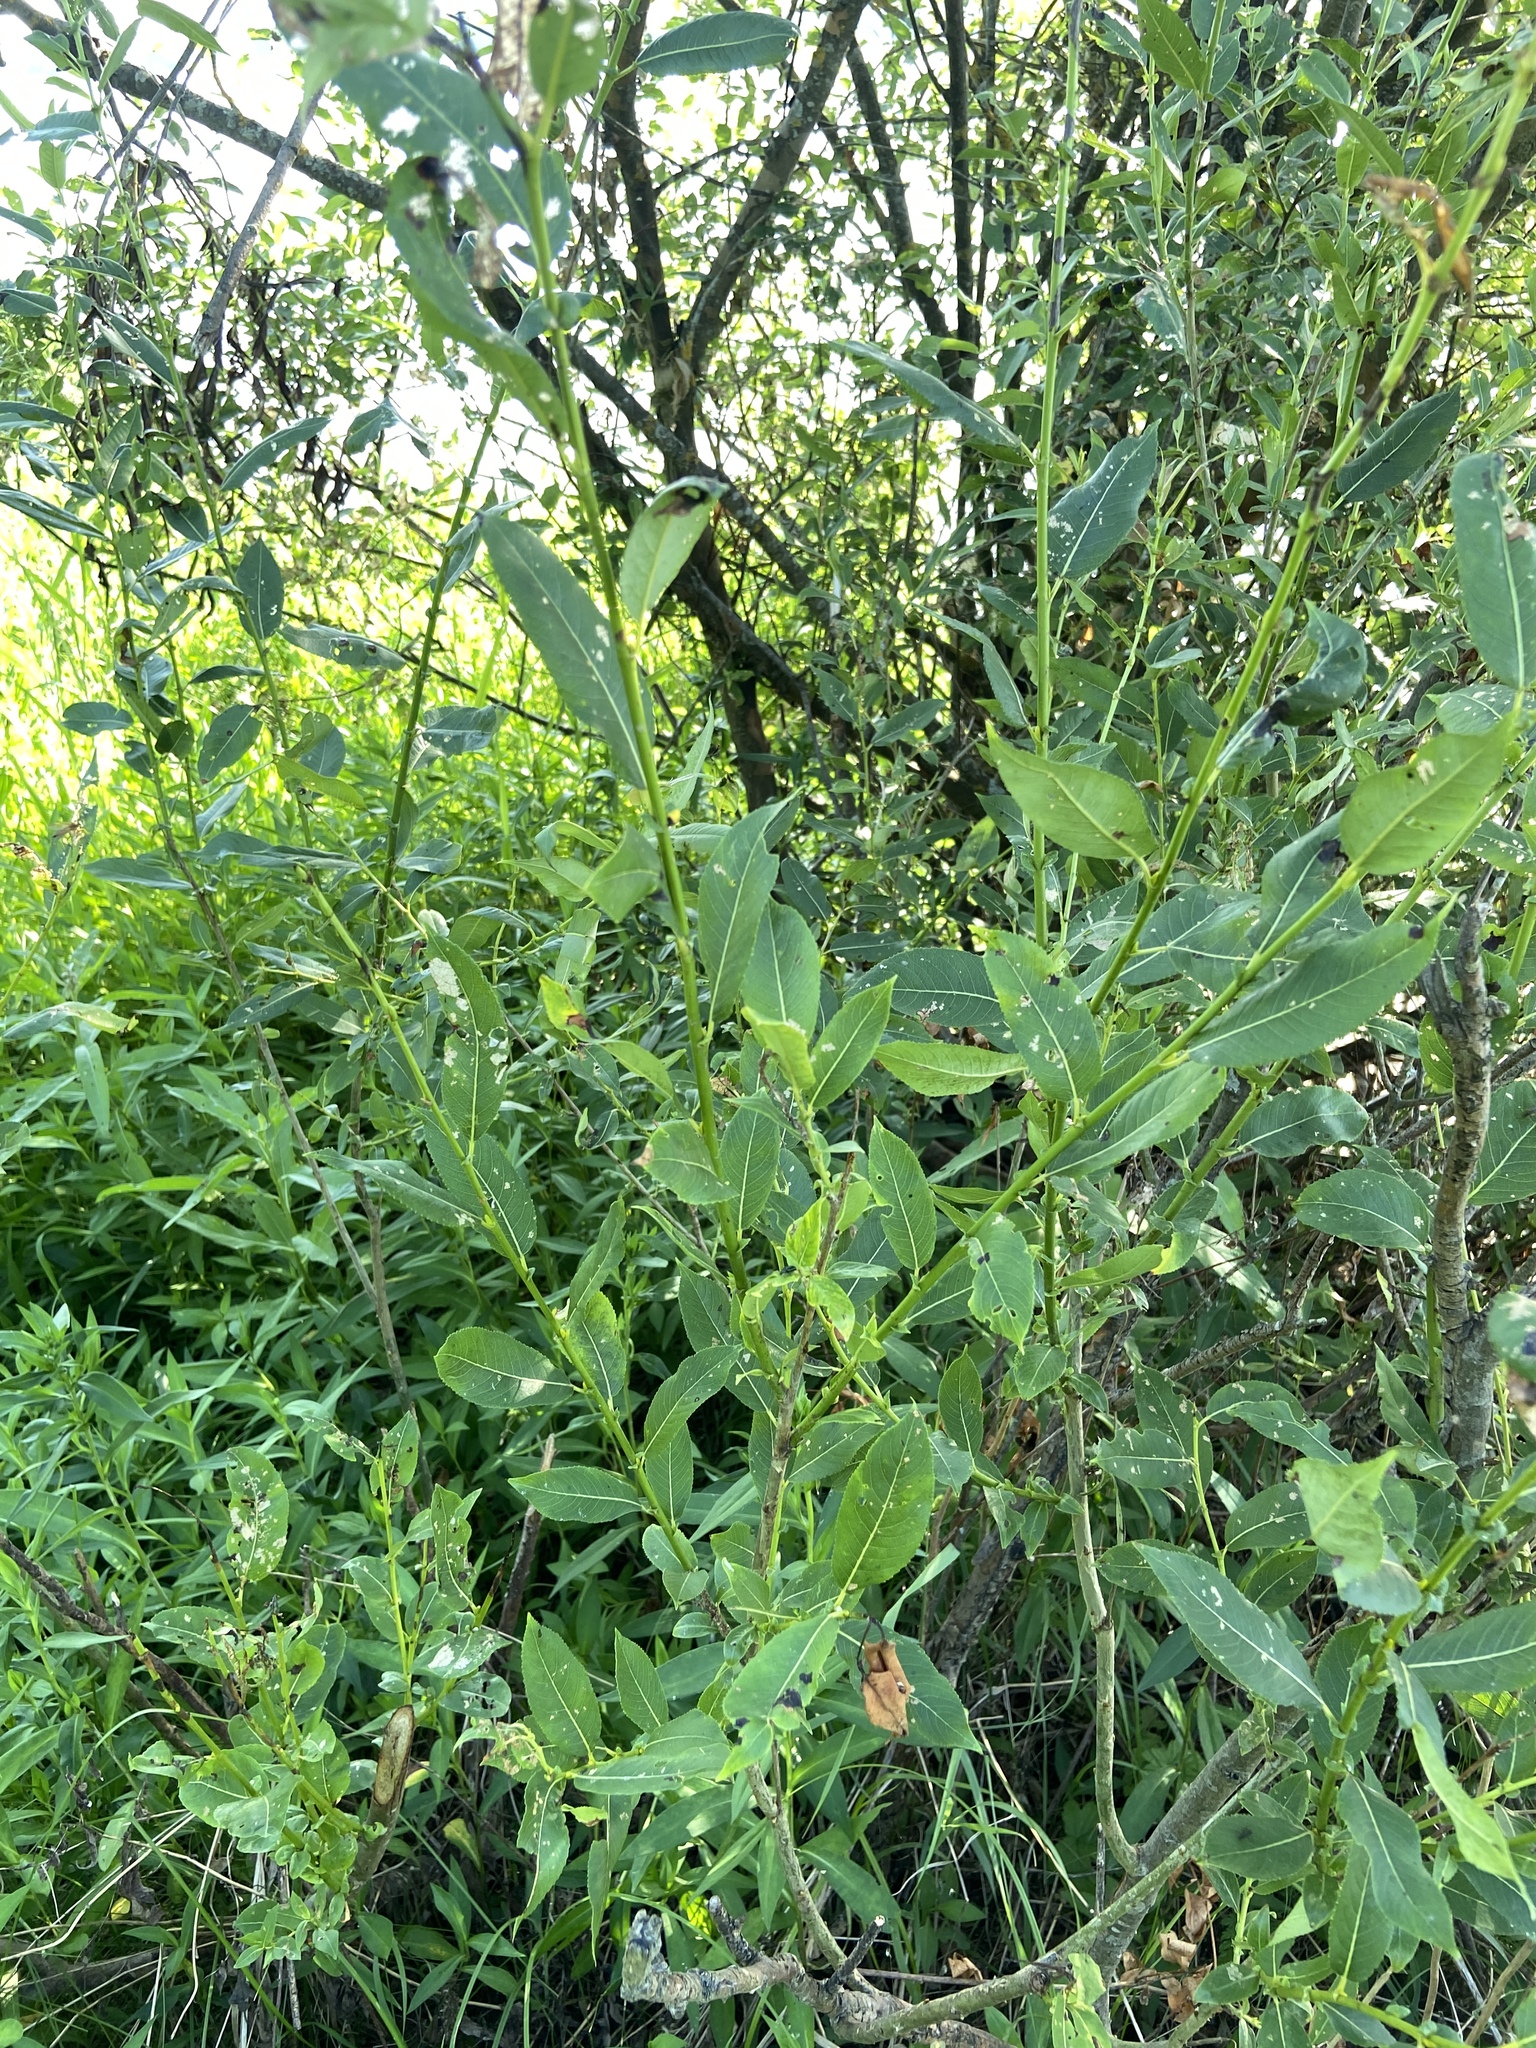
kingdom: Plantae
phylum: Tracheophyta
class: Magnoliopsida
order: Malpighiales
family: Salicaceae
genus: Salix
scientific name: Salix triandra
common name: Almond willow
